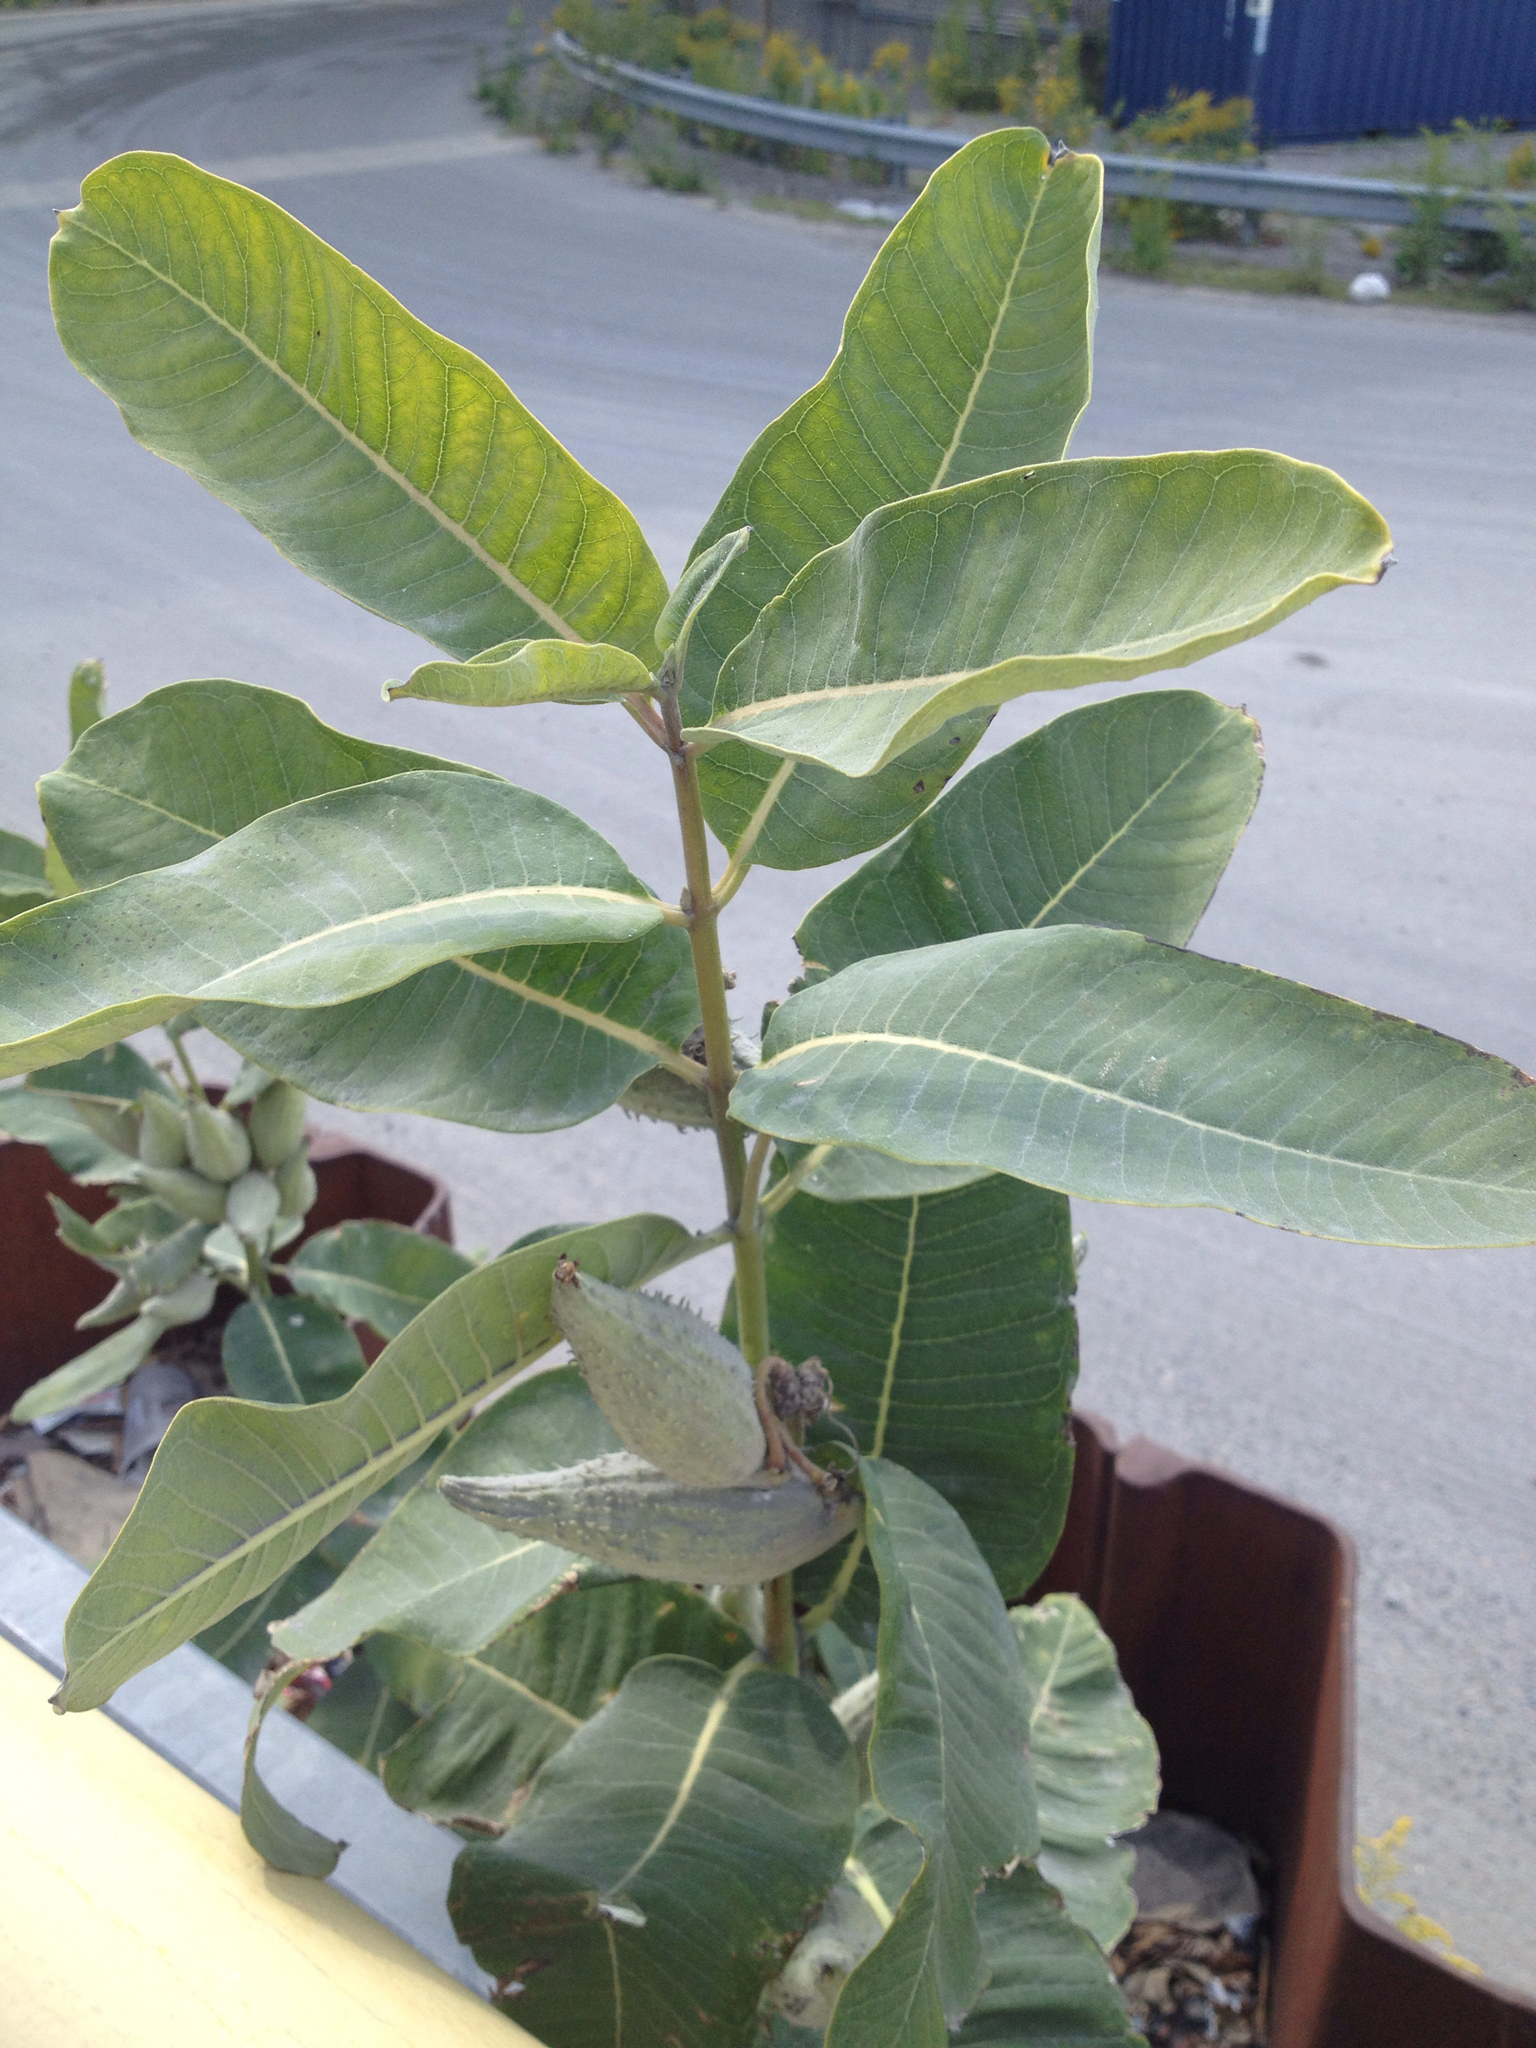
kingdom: Plantae
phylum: Tracheophyta
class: Magnoliopsida
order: Gentianales
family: Apocynaceae
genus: Asclepias
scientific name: Asclepias syriaca
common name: Common milkweed
